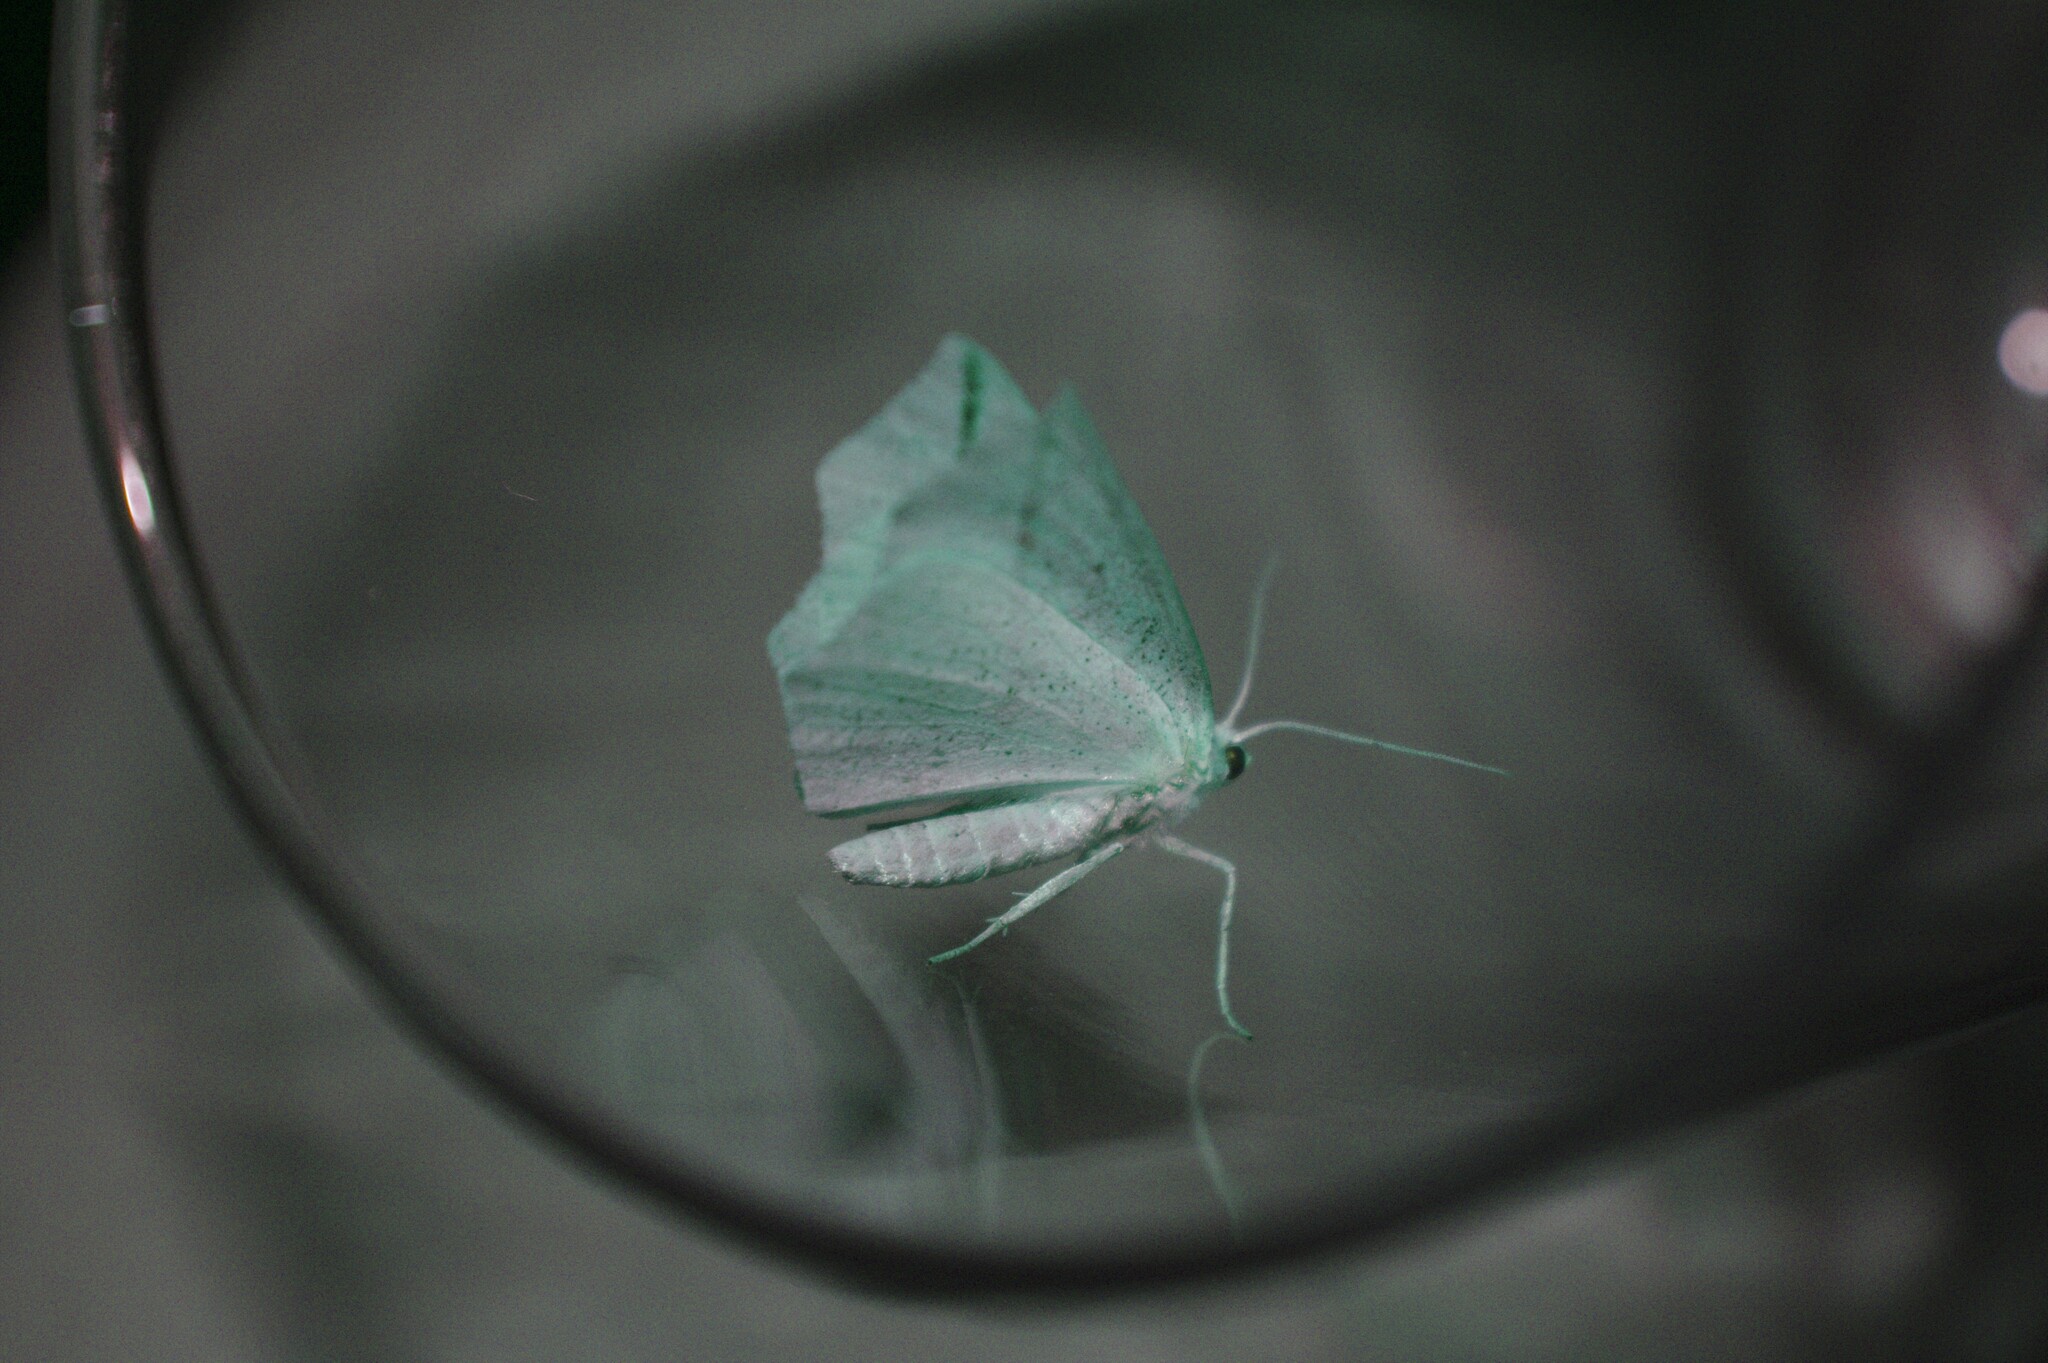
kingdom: Animalia
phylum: Arthropoda
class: Insecta
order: Lepidoptera
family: Geometridae
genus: Tetracis
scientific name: Tetracis crocallata
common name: Yellow slant-line
